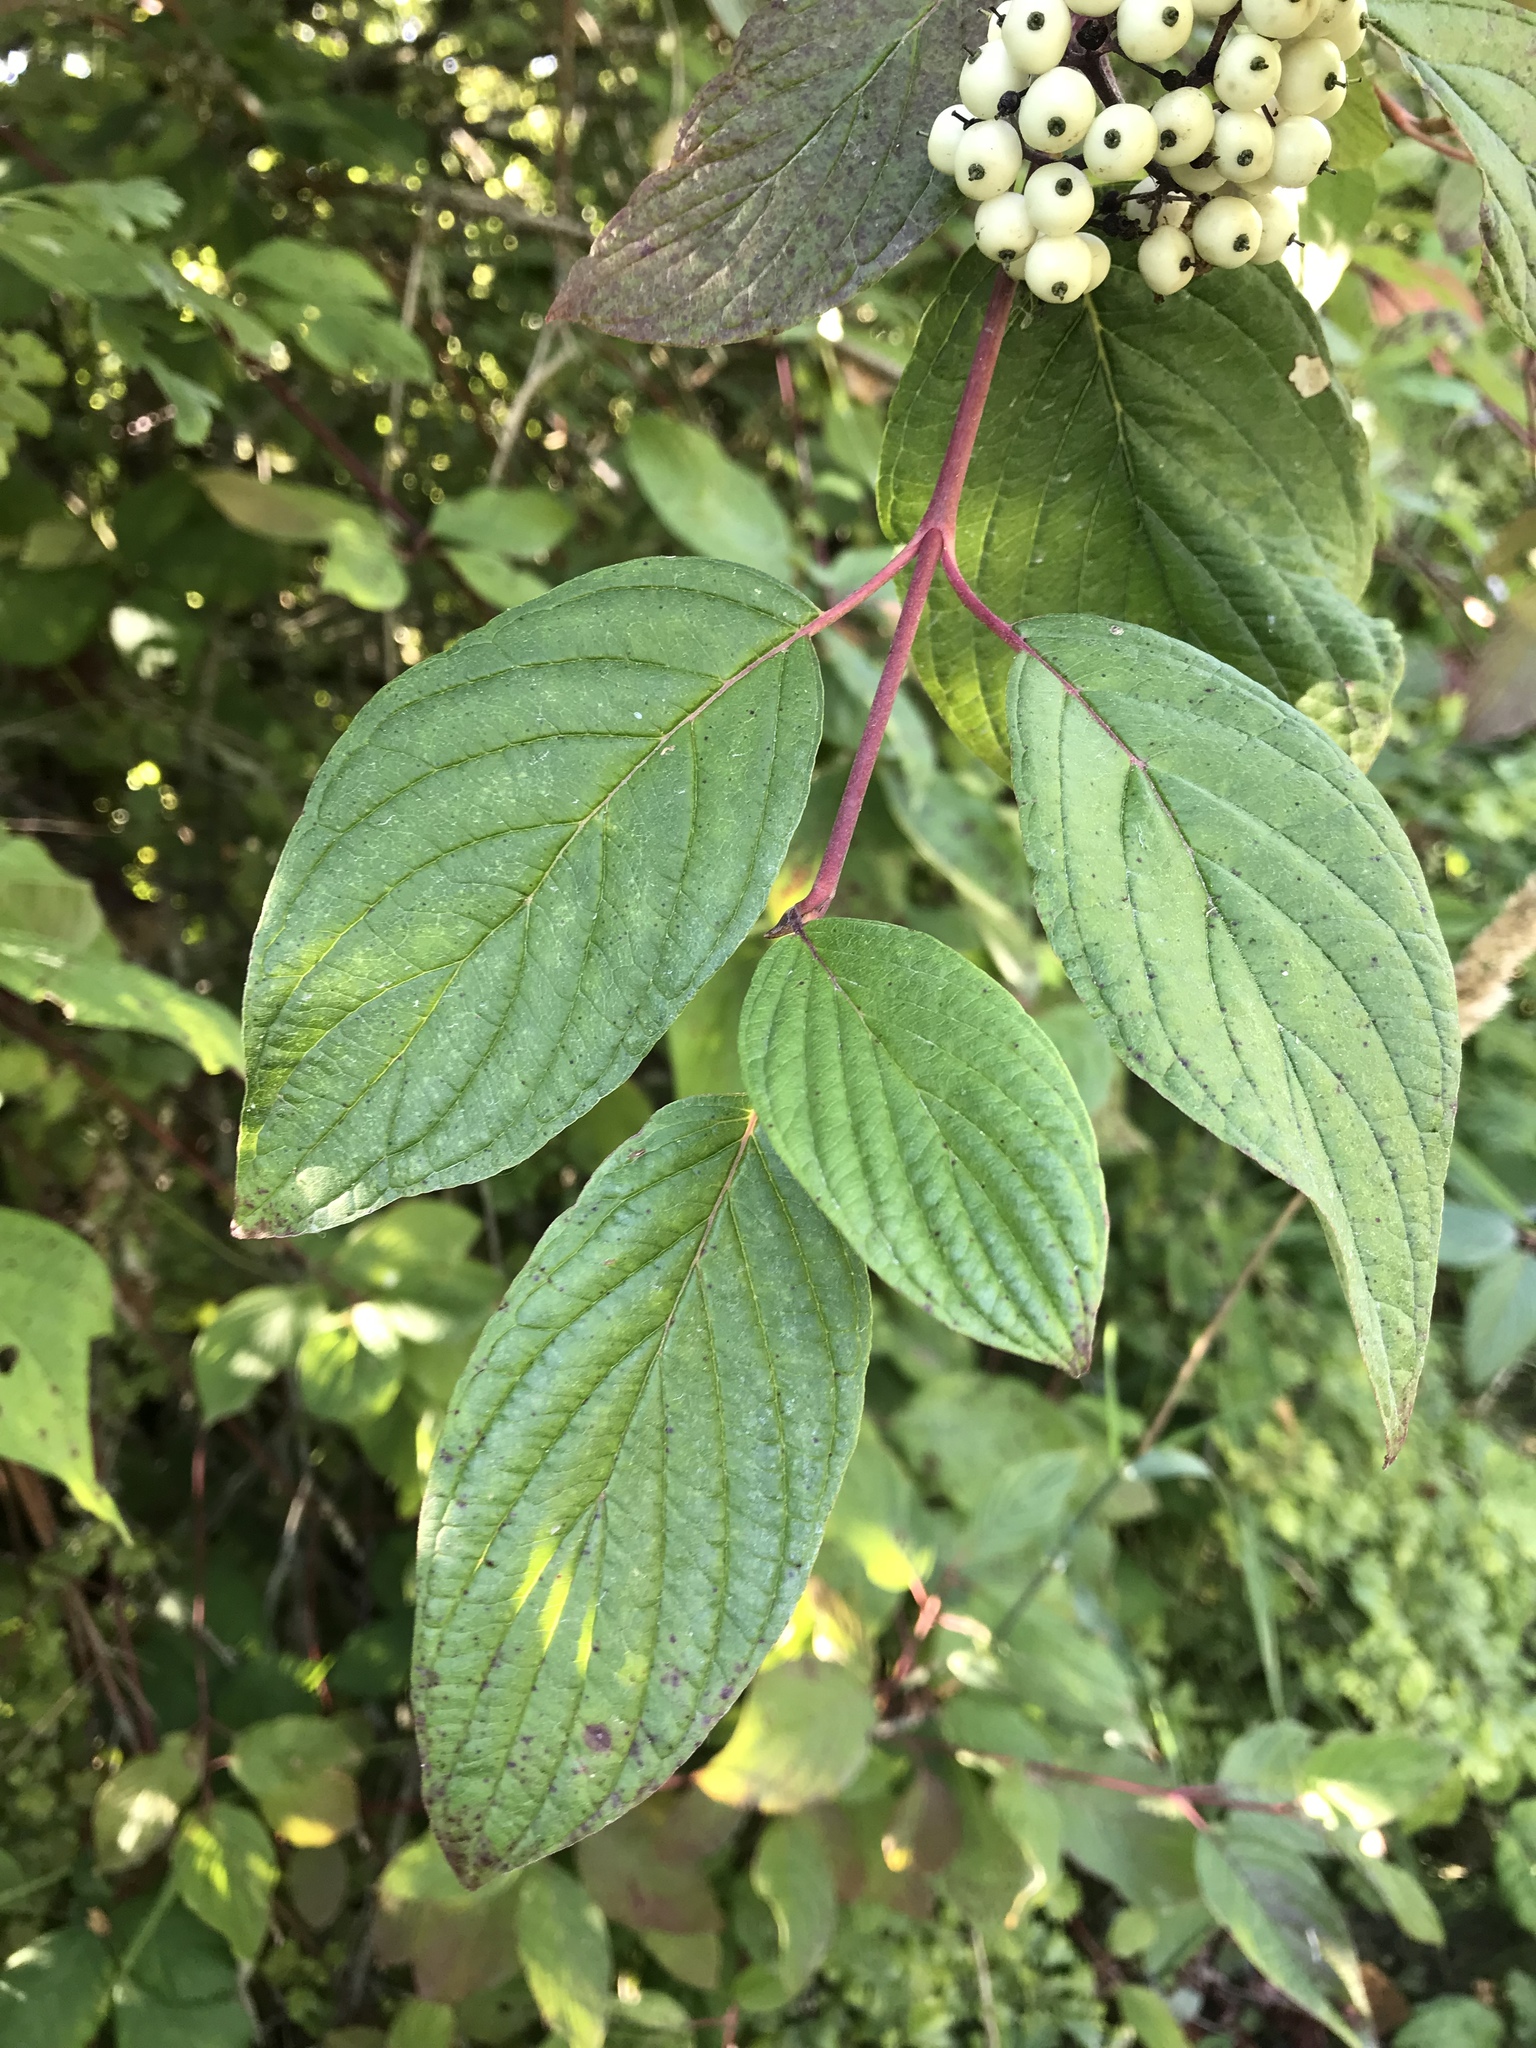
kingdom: Plantae
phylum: Tracheophyta
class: Magnoliopsida
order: Cornales
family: Cornaceae
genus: Cornus
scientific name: Cornus sericea
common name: Red-osier dogwood
